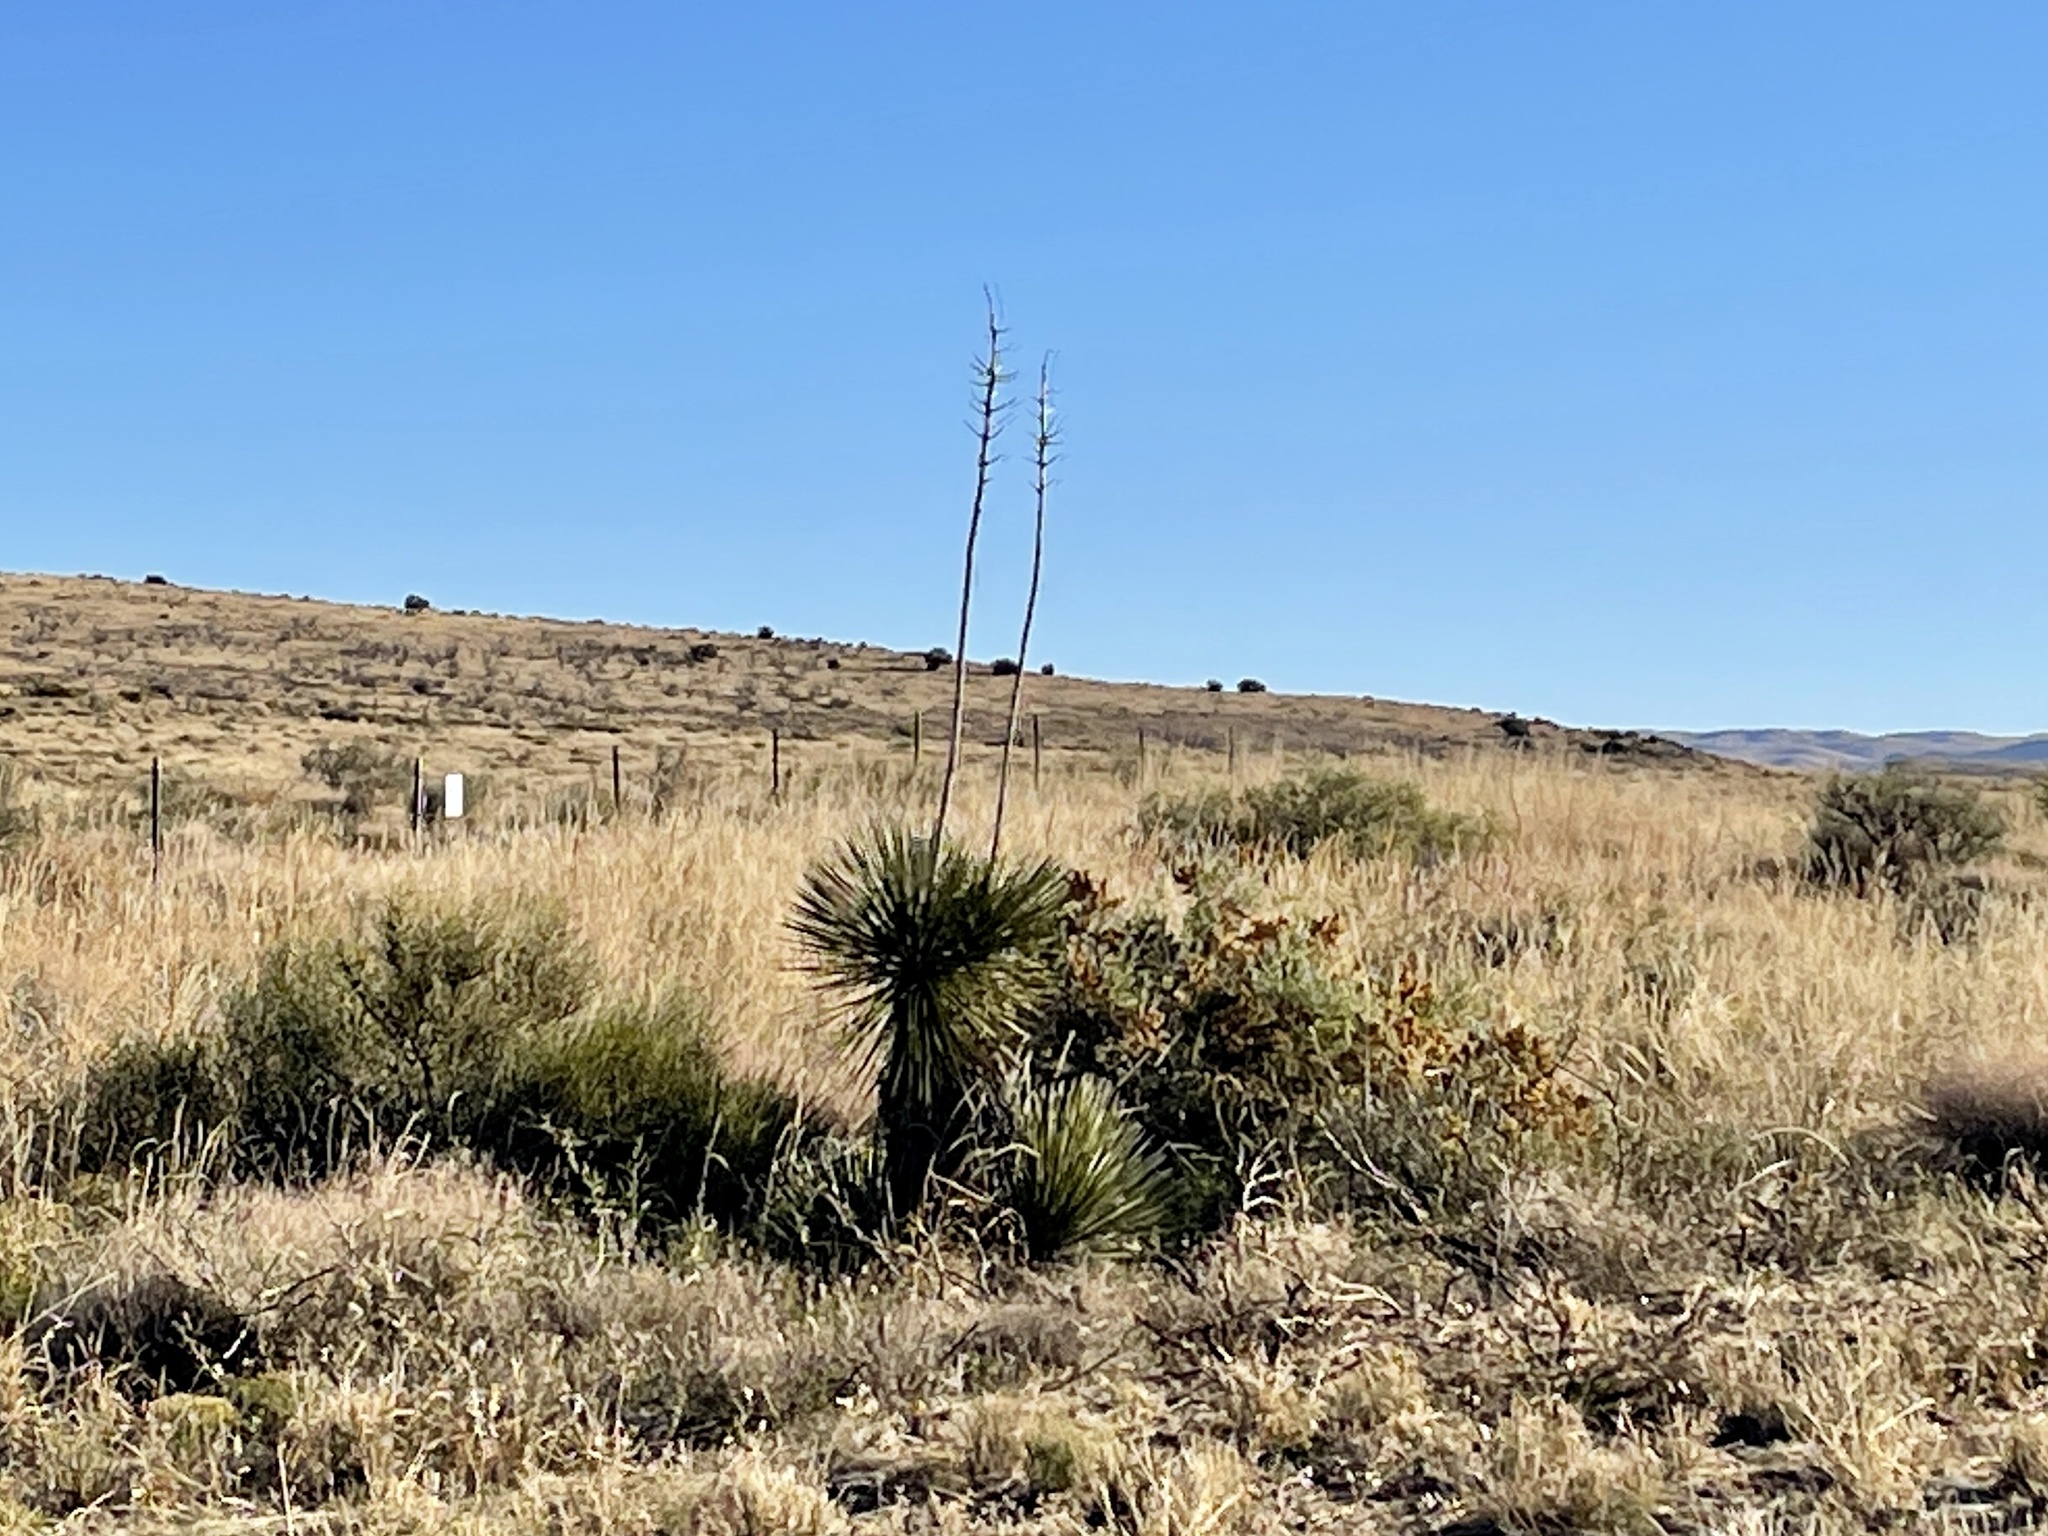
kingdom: Plantae
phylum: Tracheophyta
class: Liliopsida
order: Asparagales
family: Asparagaceae
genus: Yucca
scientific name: Yucca elata
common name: Palmella
